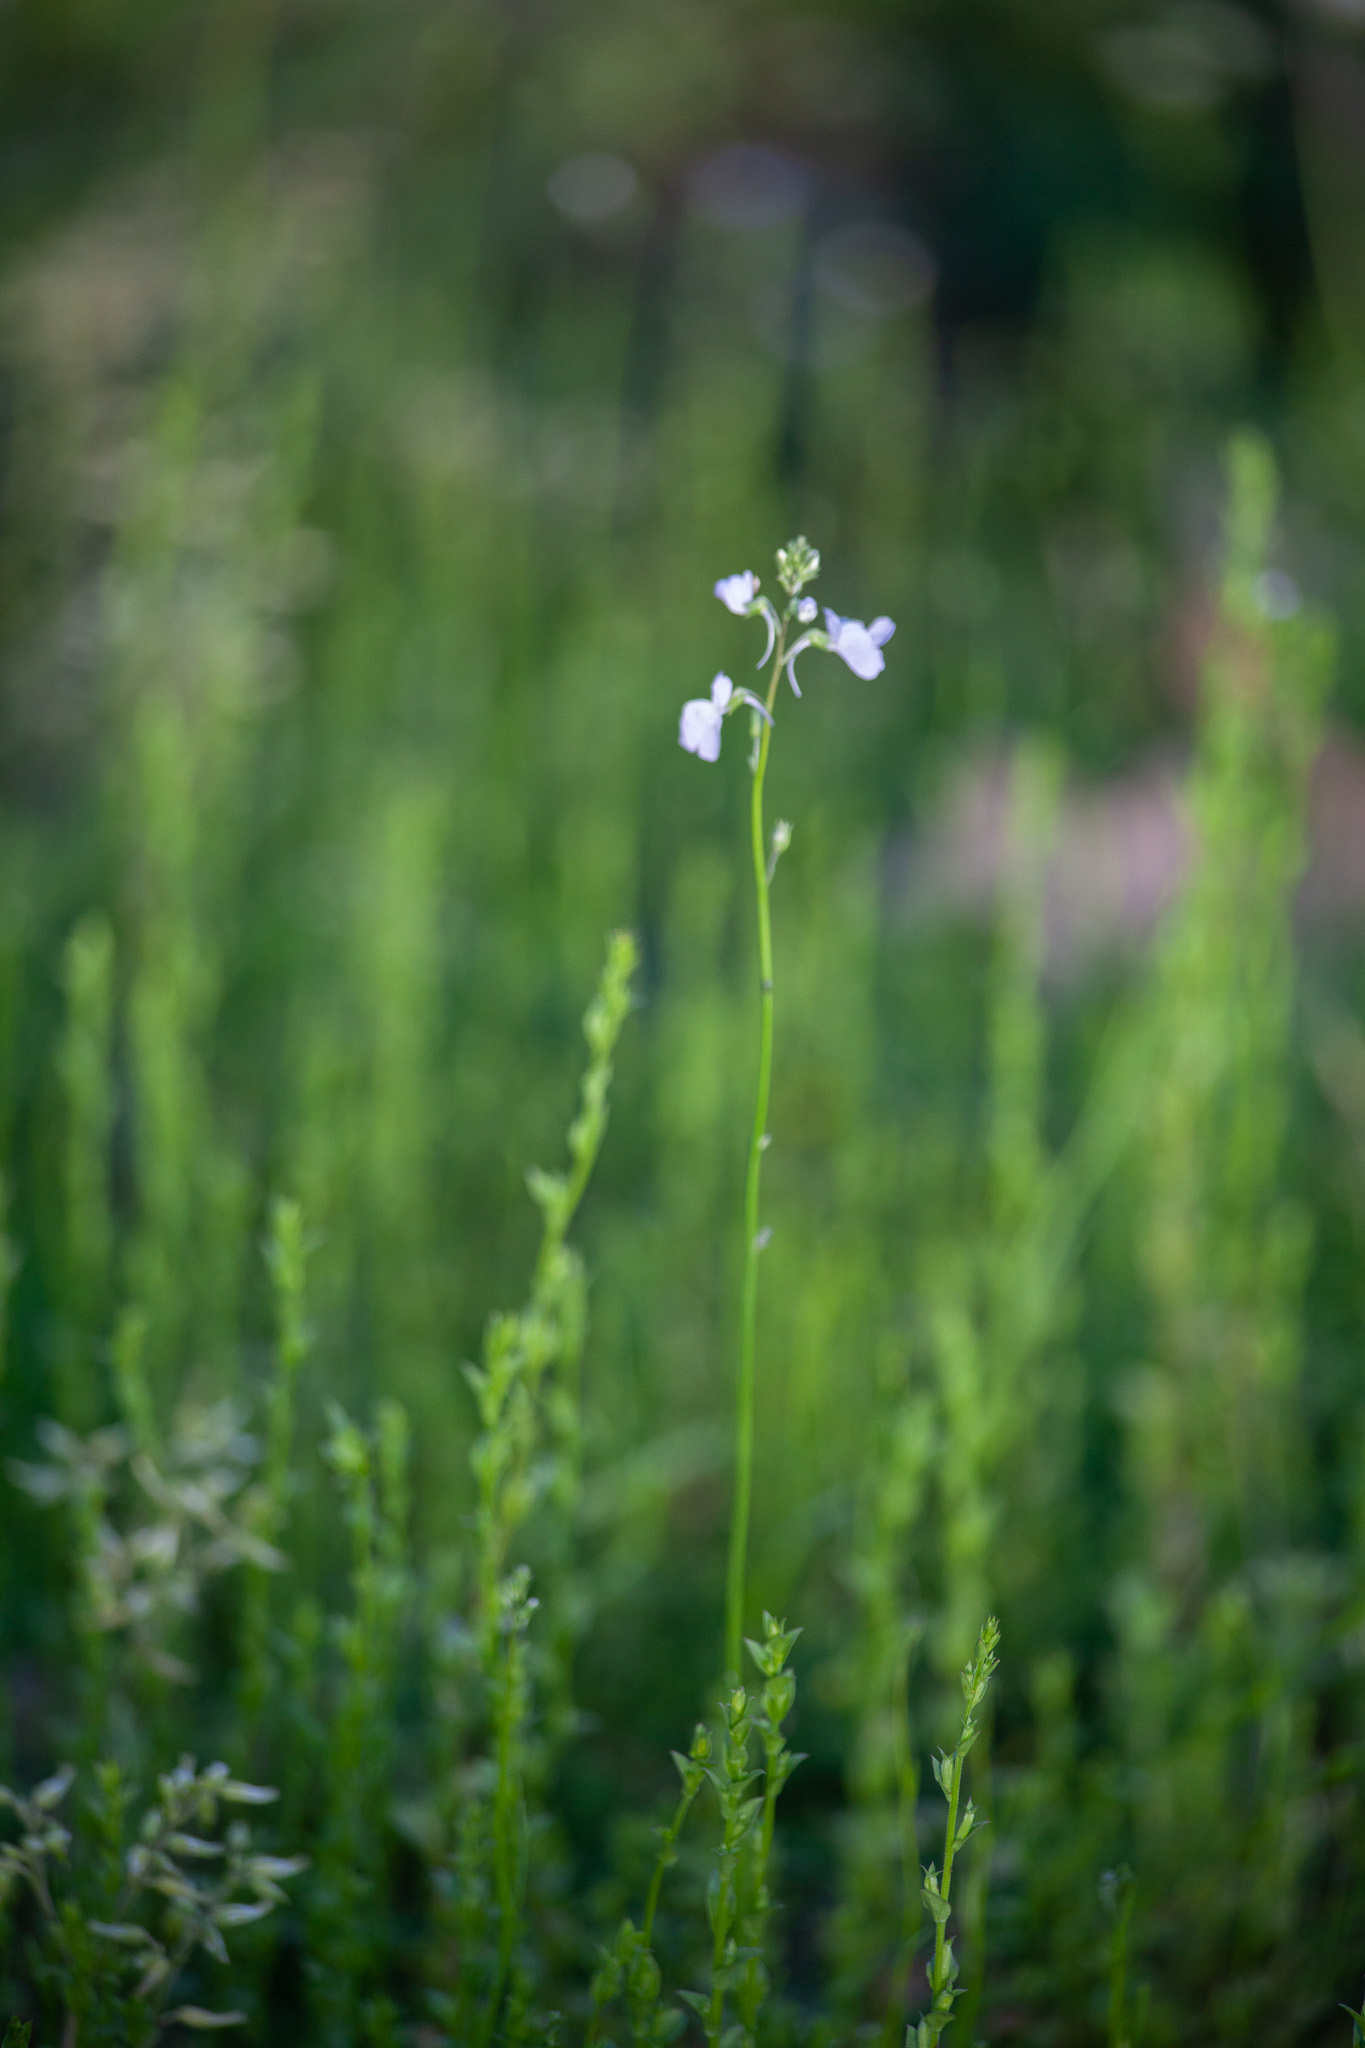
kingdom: Plantae
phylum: Tracheophyta
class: Magnoliopsida
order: Lamiales
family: Plantaginaceae
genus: Nuttallanthus
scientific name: Nuttallanthus texanus
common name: Texas toadflax
